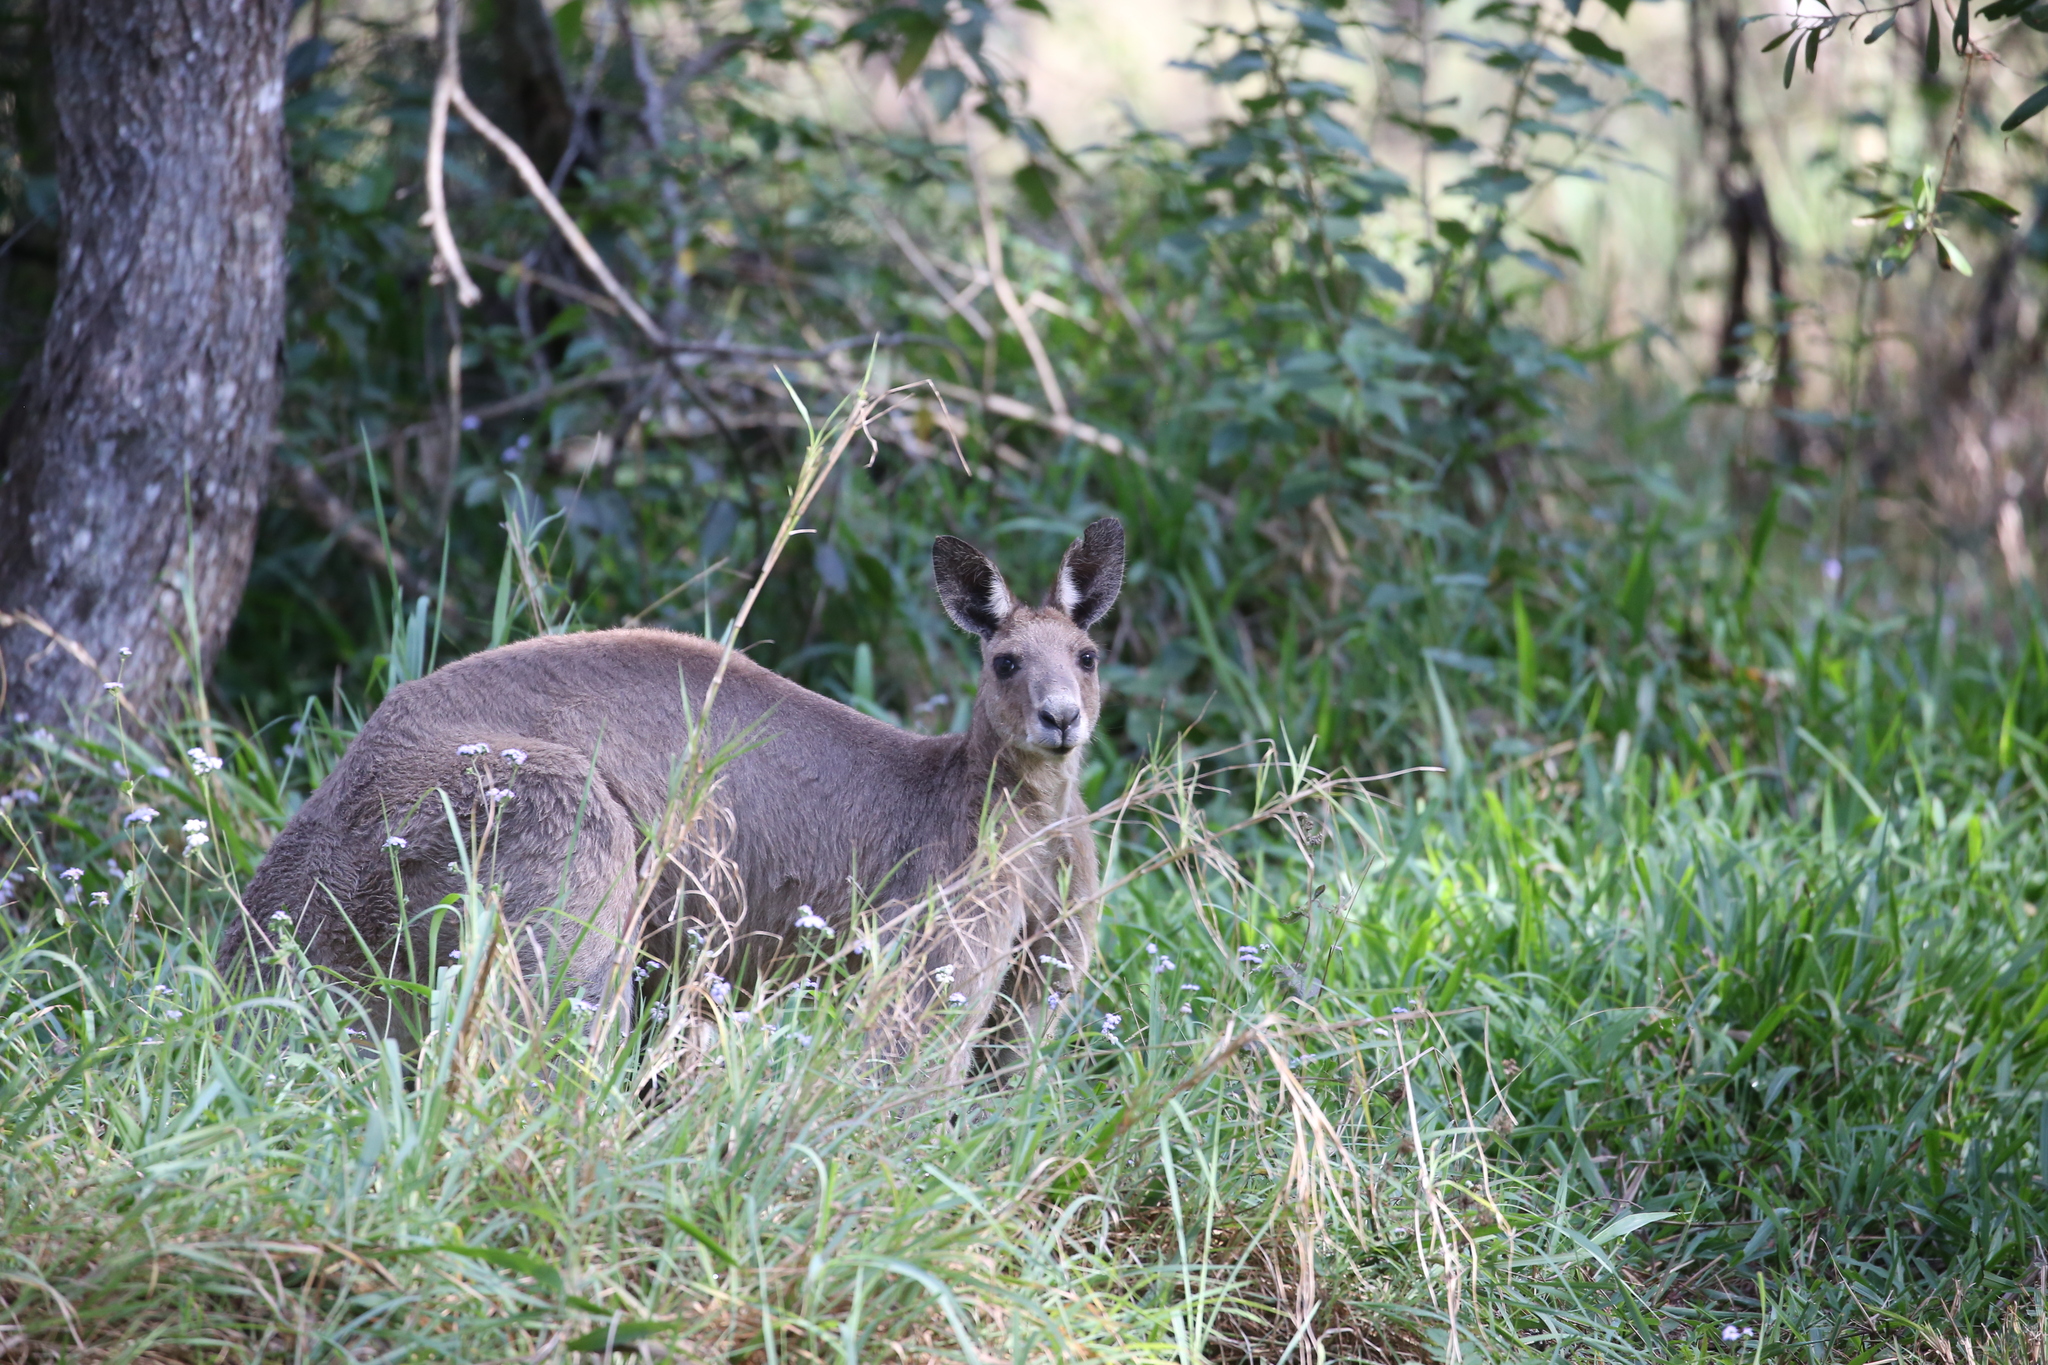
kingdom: Animalia
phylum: Chordata
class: Mammalia
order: Diprotodontia
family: Macropodidae
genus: Macropus
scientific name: Macropus giganteus
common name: Eastern grey kangaroo
